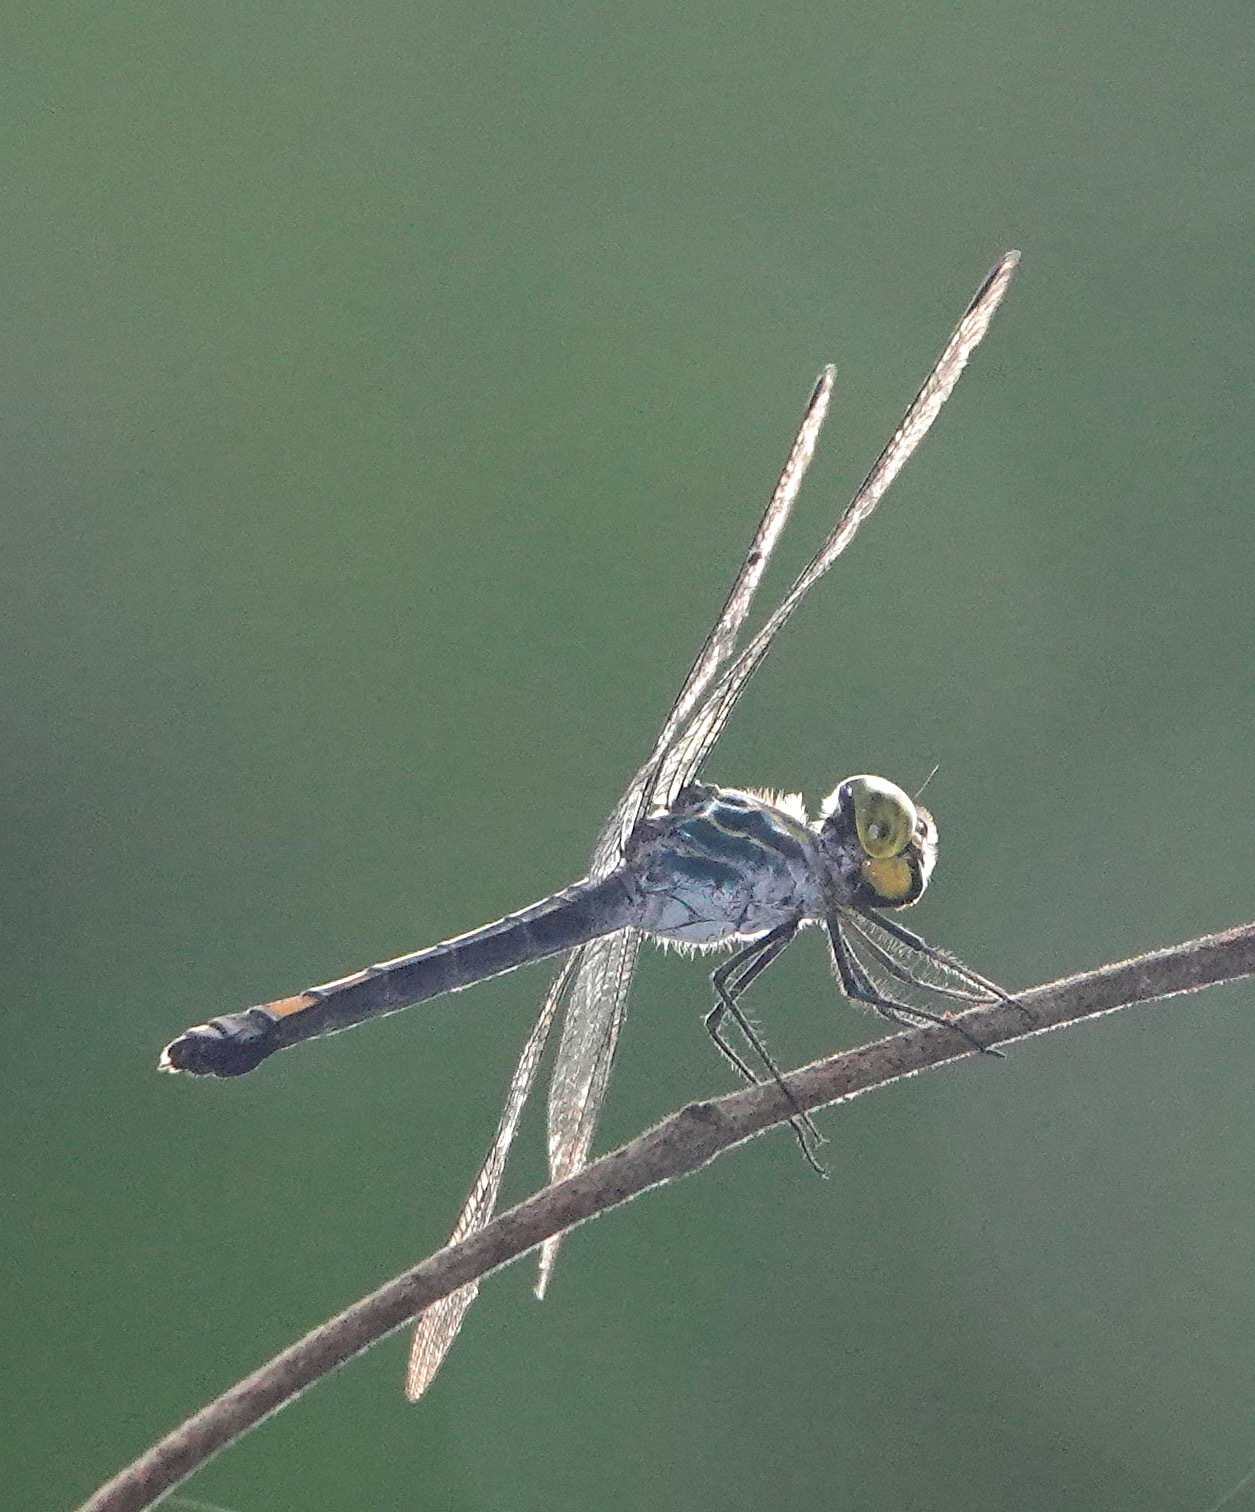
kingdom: Animalia
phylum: Arthropoda
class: Insecta
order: Odonata
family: Libellulidae
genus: Agrionoptera
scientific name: Agrionoptera sexlineata
